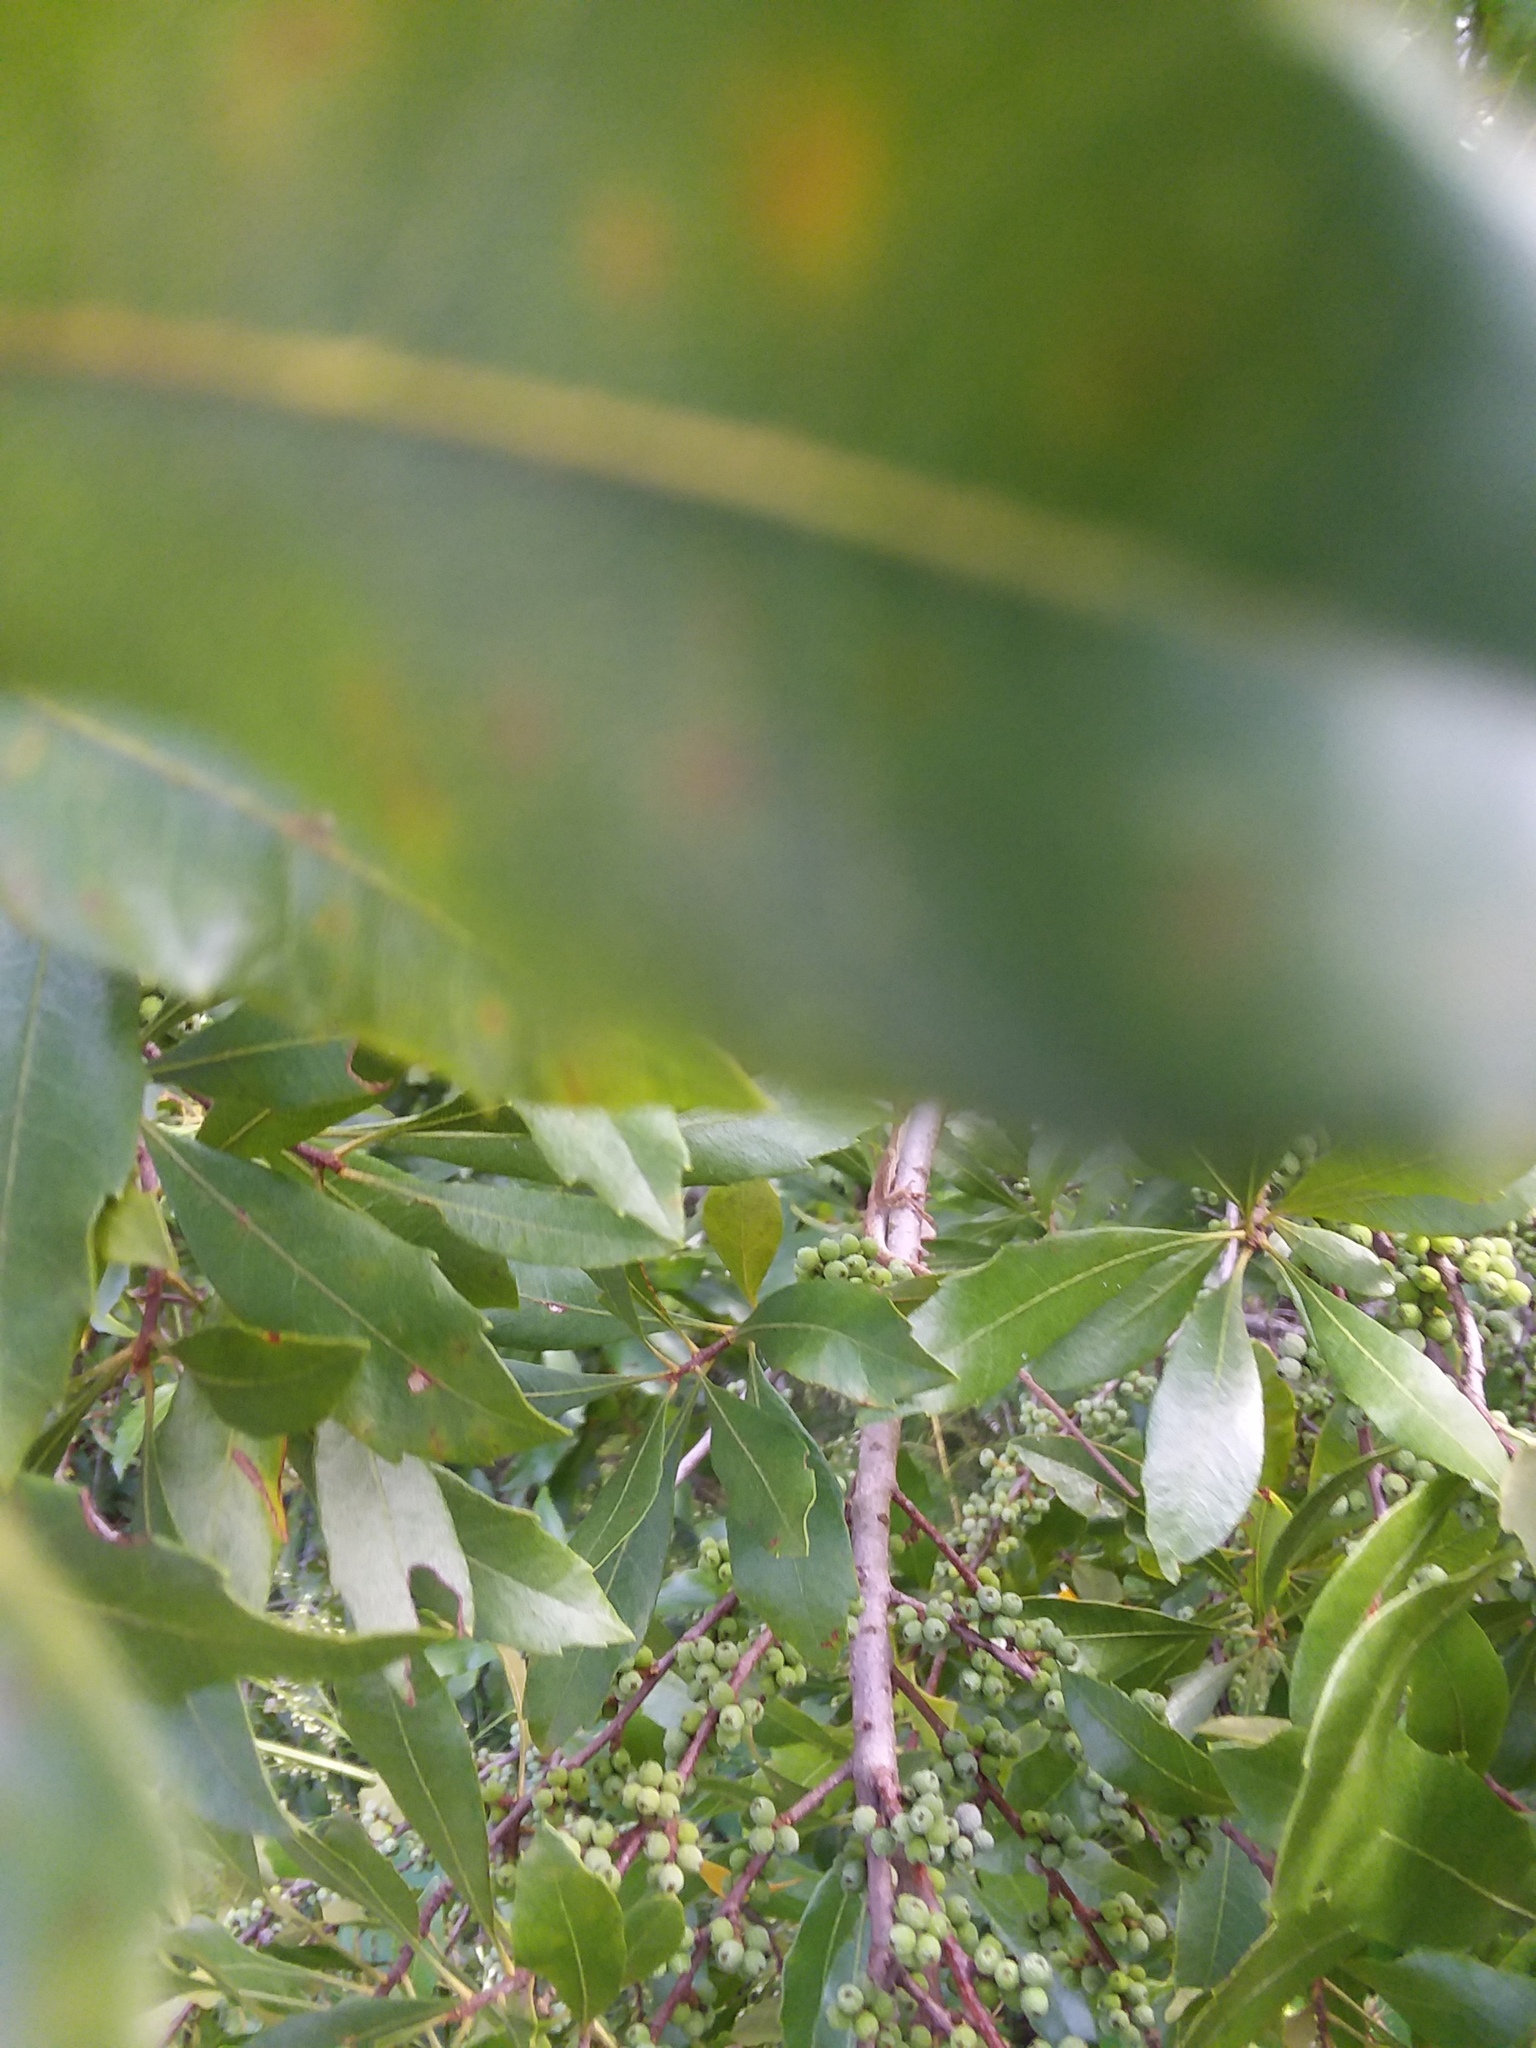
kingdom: Plantae
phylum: Tracheophyta
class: Magnoliopsida
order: Fagales
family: Myricaceae
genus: Morella
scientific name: Morella cerifera
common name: Wax myrtle
